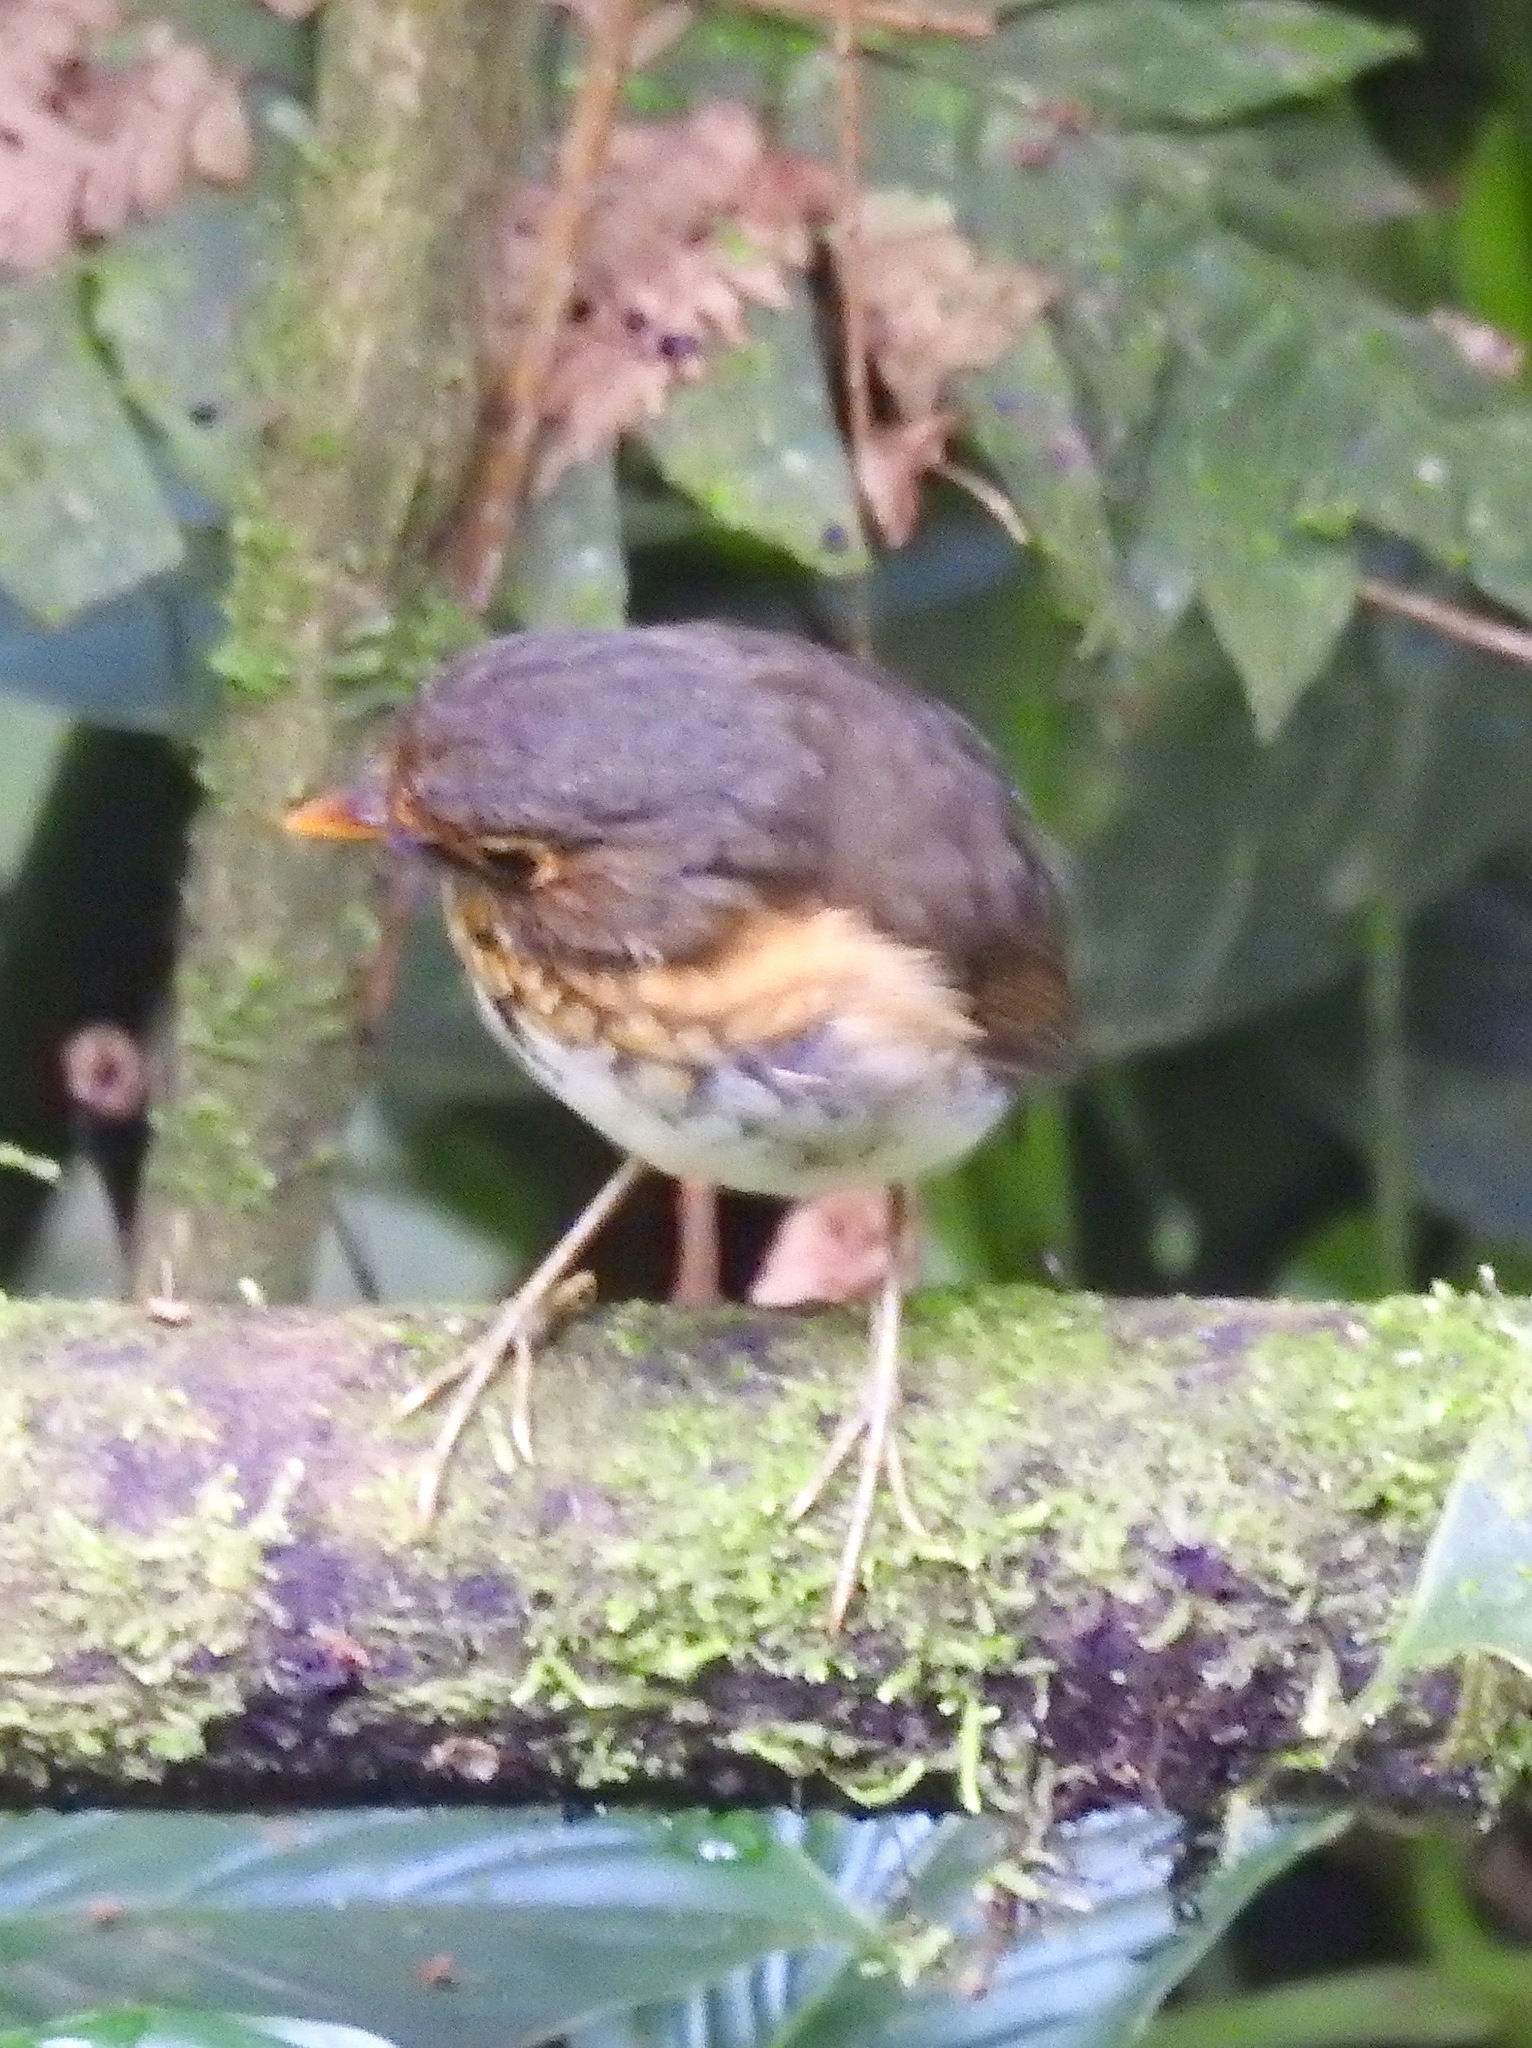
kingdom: Animalia
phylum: Chordata
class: Aves
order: Passeriformes
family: Grallariidae
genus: Grallaricula
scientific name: Grallaricula flavirostris
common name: Ochre-breasted antpitta
